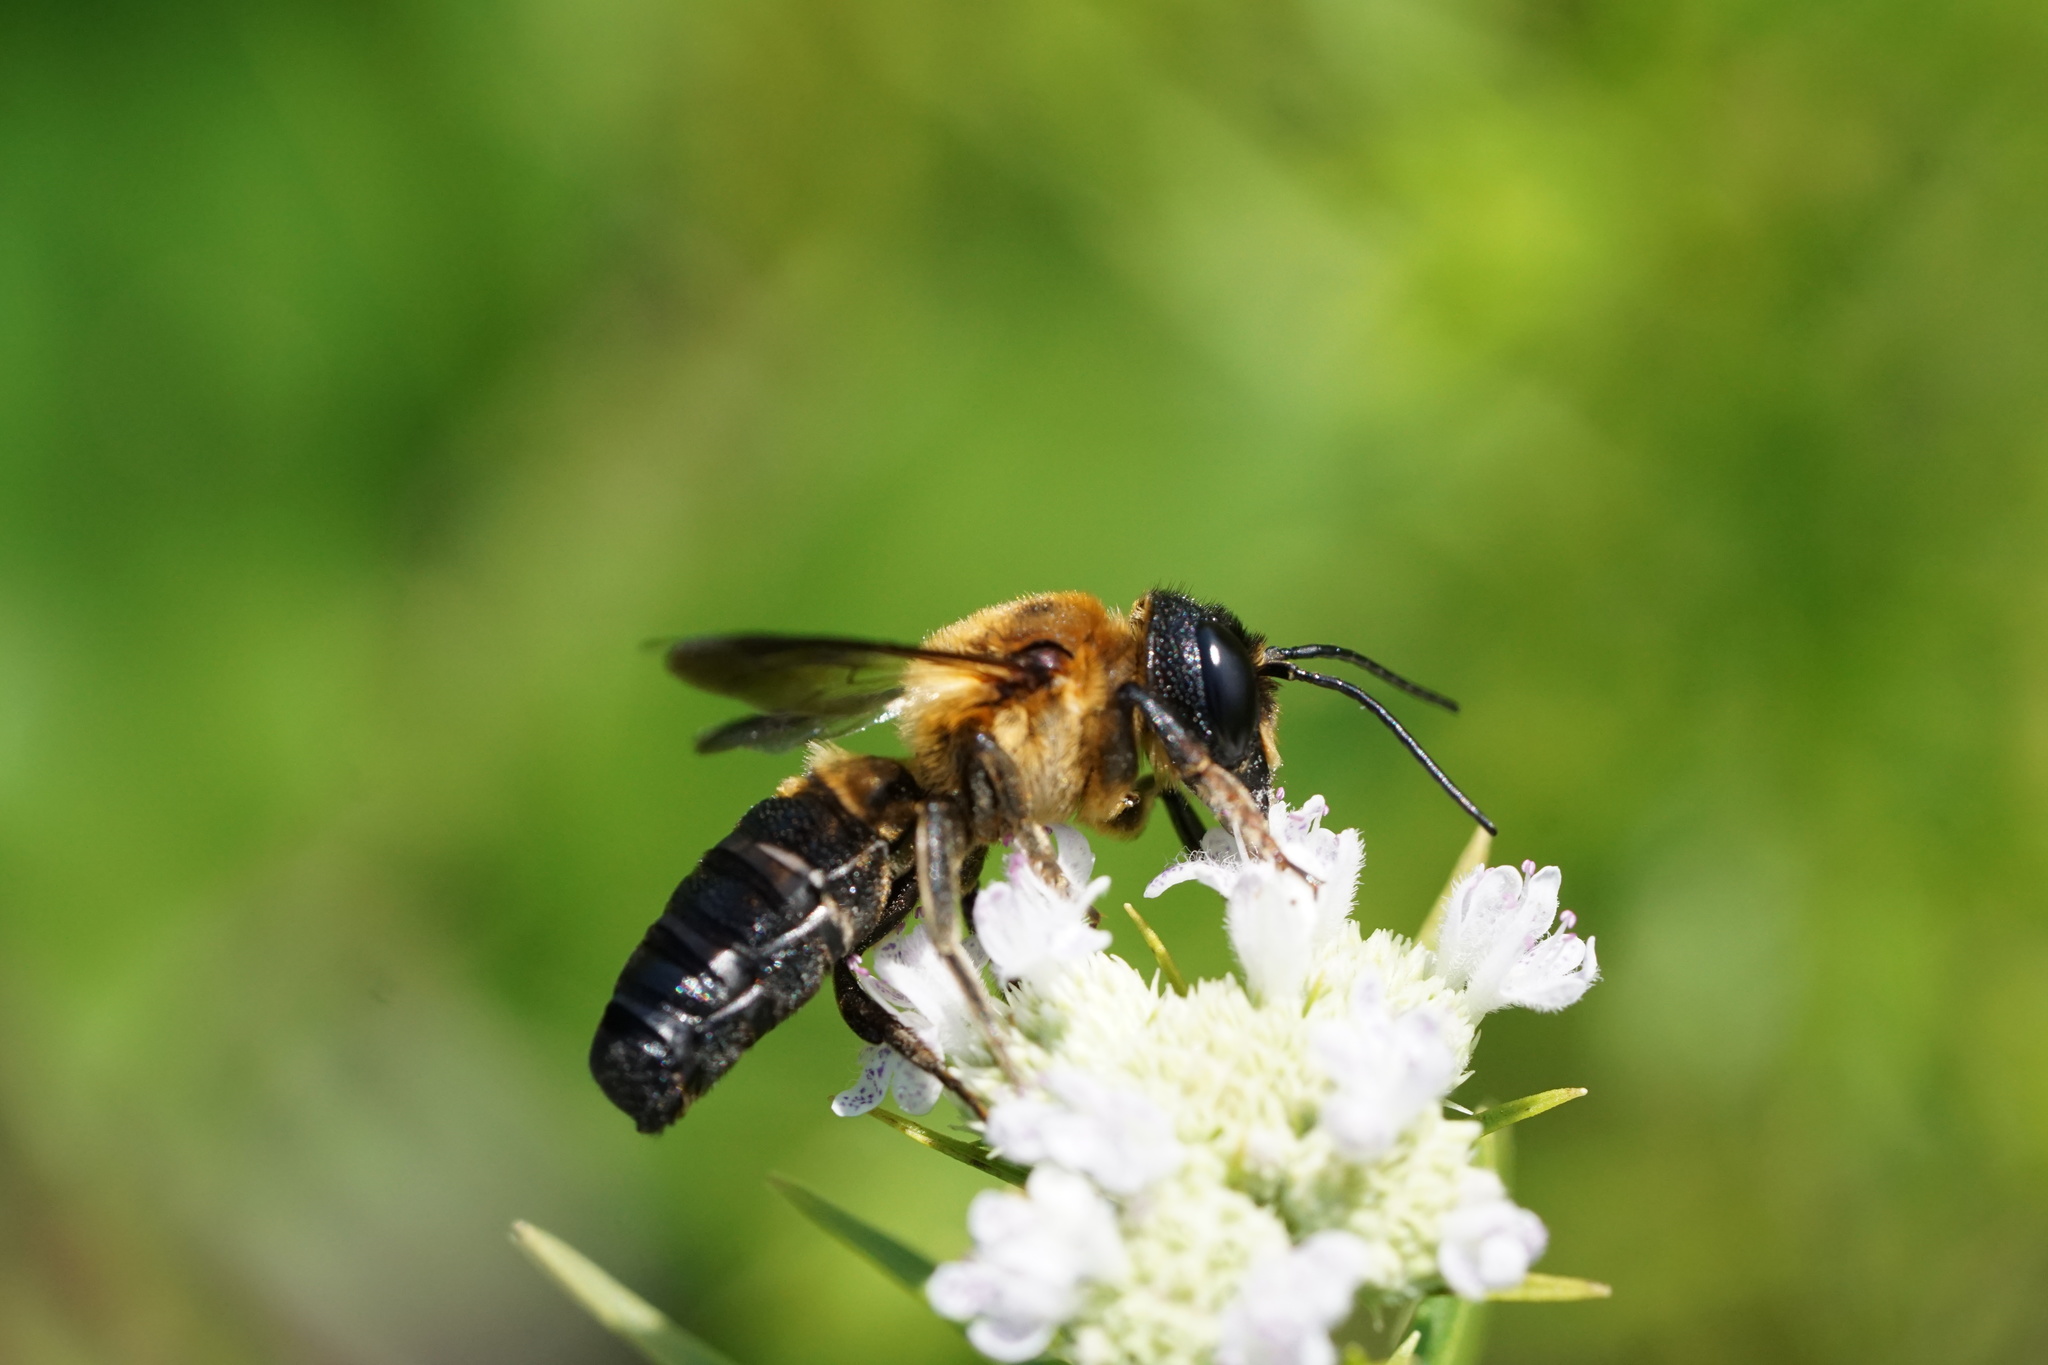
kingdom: Animalia
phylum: Arthropoda
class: Insecta
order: Hymenoptera
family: Megachilidae
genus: Megachile
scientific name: Megachile sculpturalis
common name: Sculptured resin bee
